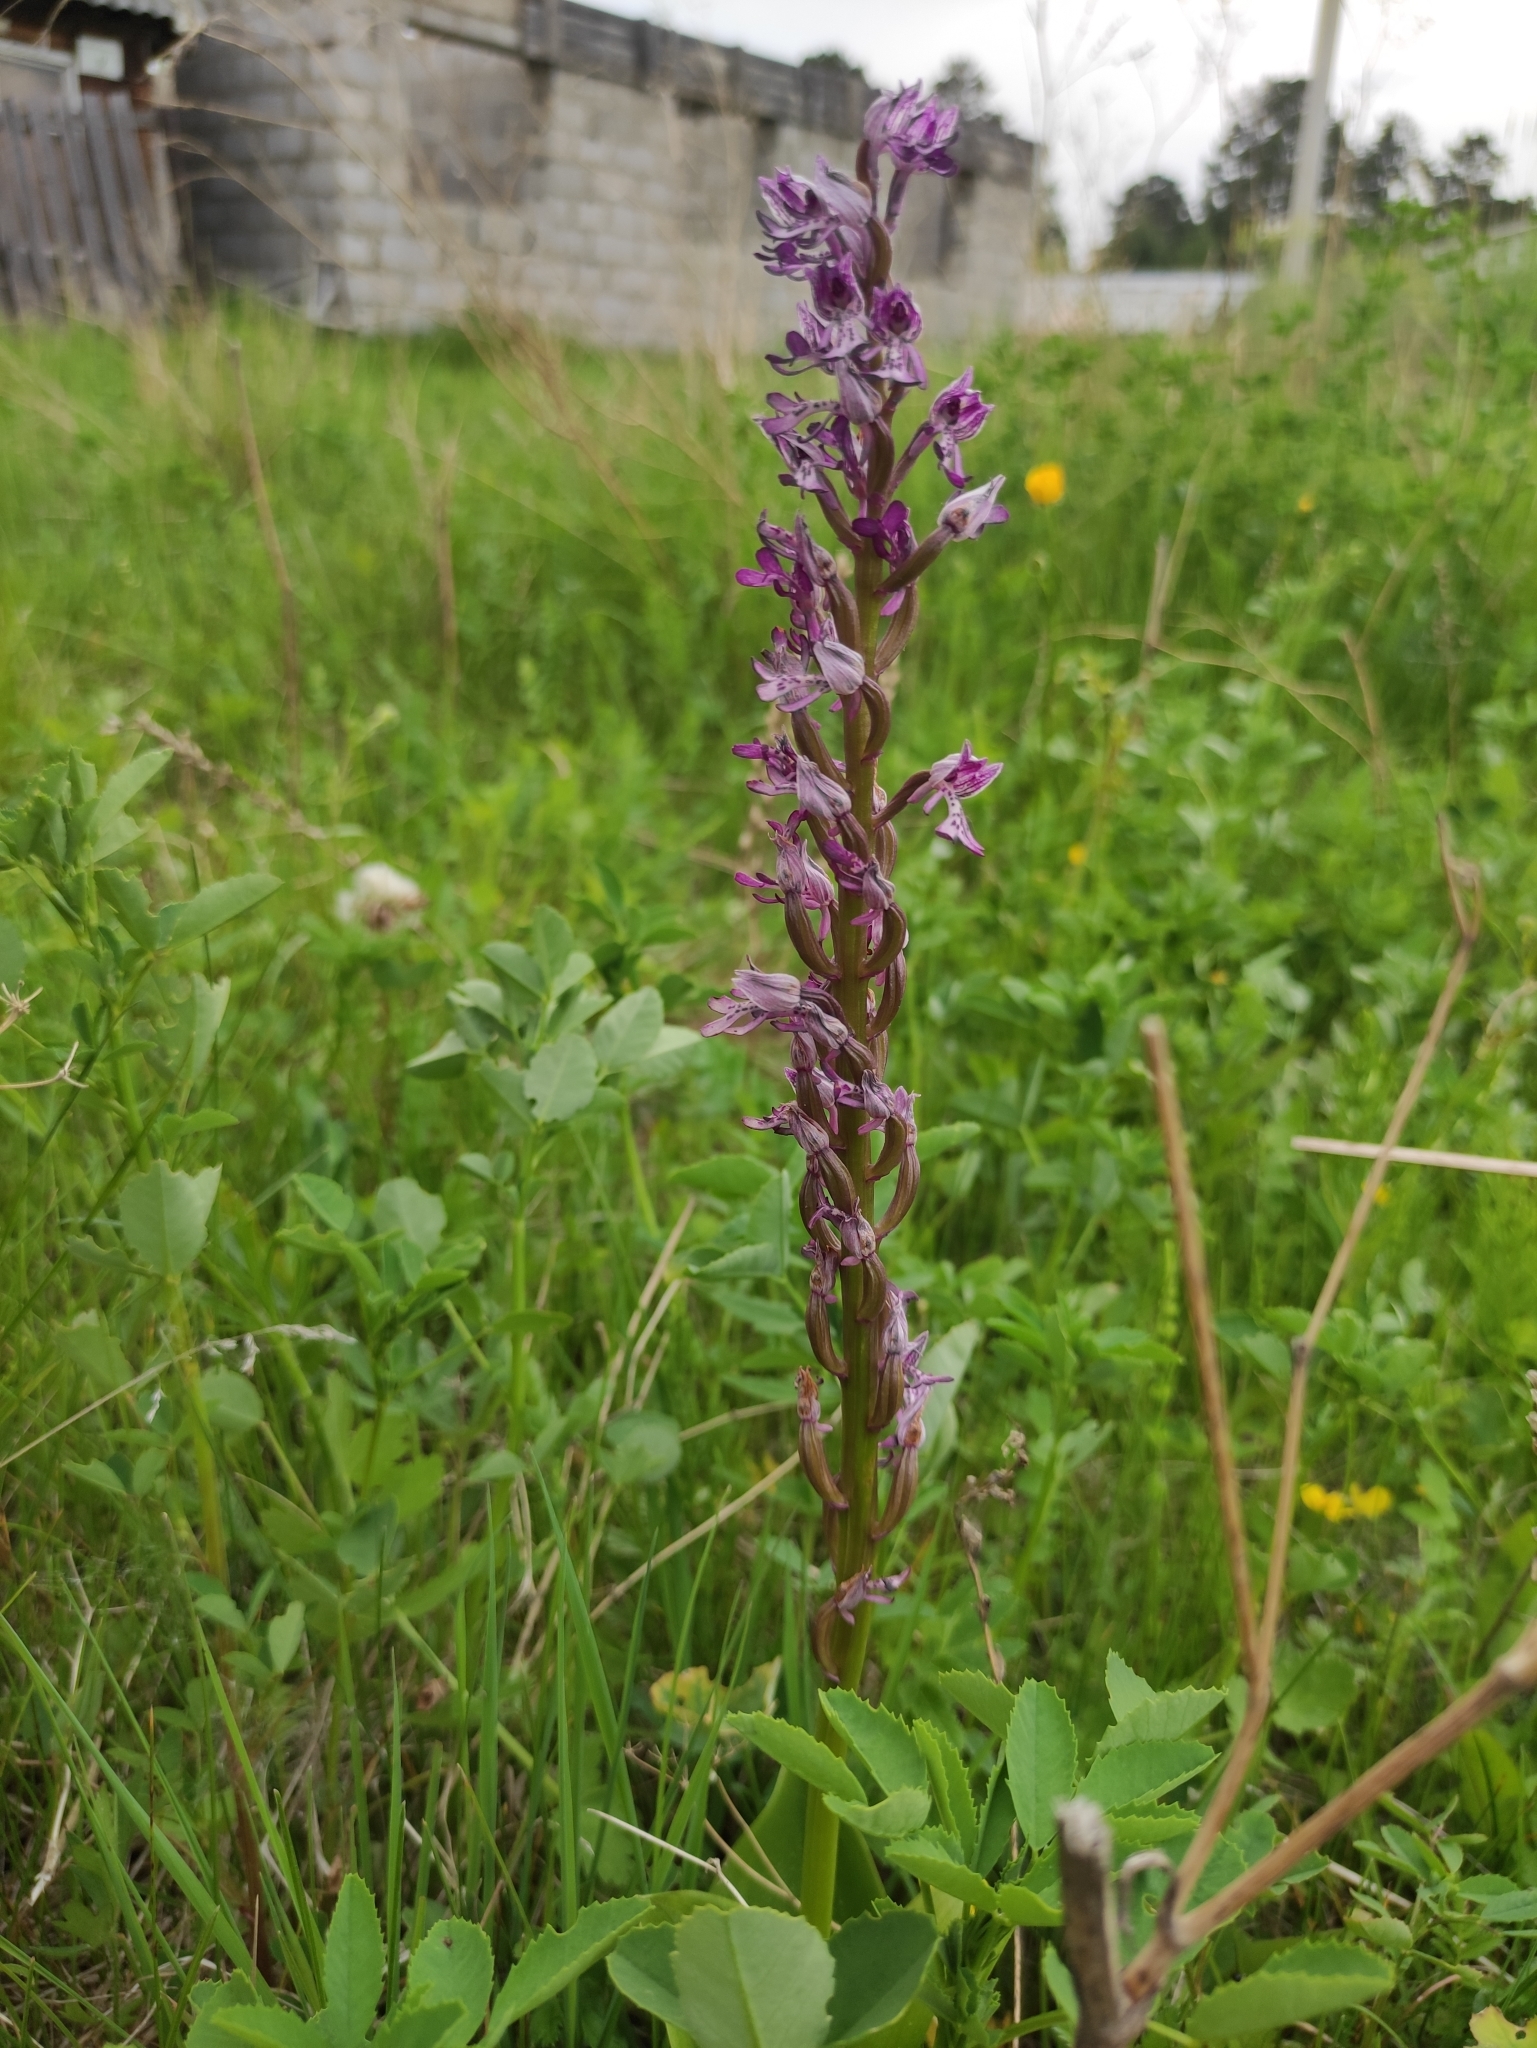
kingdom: Plantae
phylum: Tracheophyta
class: Liliopsida
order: Asparagales
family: Orchidaceae
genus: Orchis
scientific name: Orchis militaris
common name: Military orchid
